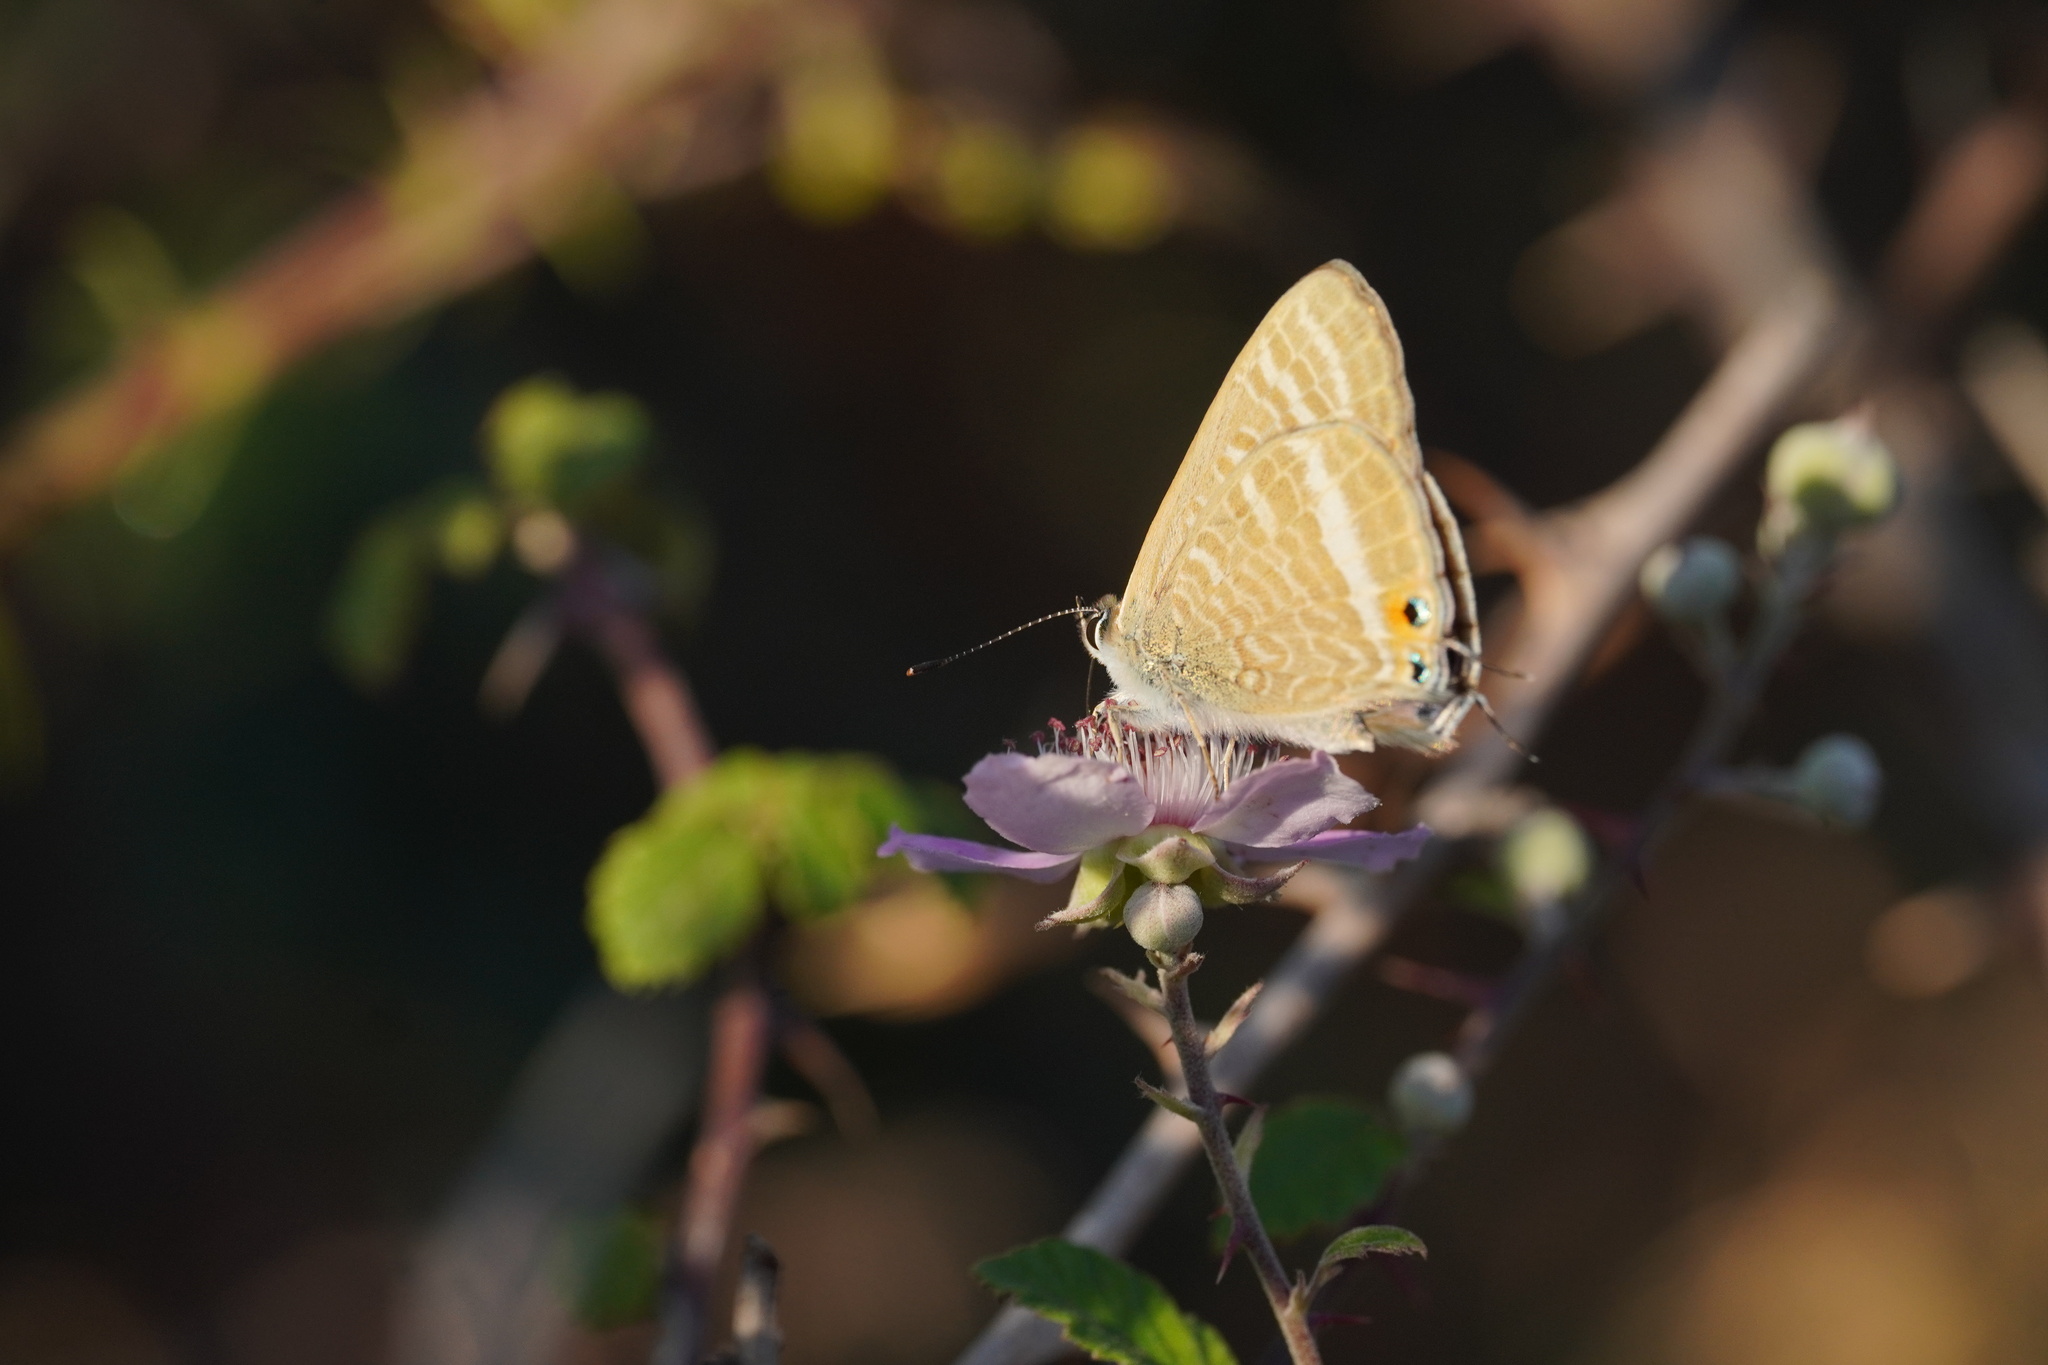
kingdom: Animalia
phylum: Arthropoda
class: Insecta
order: Lepidoptera
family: Lycaenidae
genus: Lampides
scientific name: Lampides boeticus
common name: Long-tailed blue
